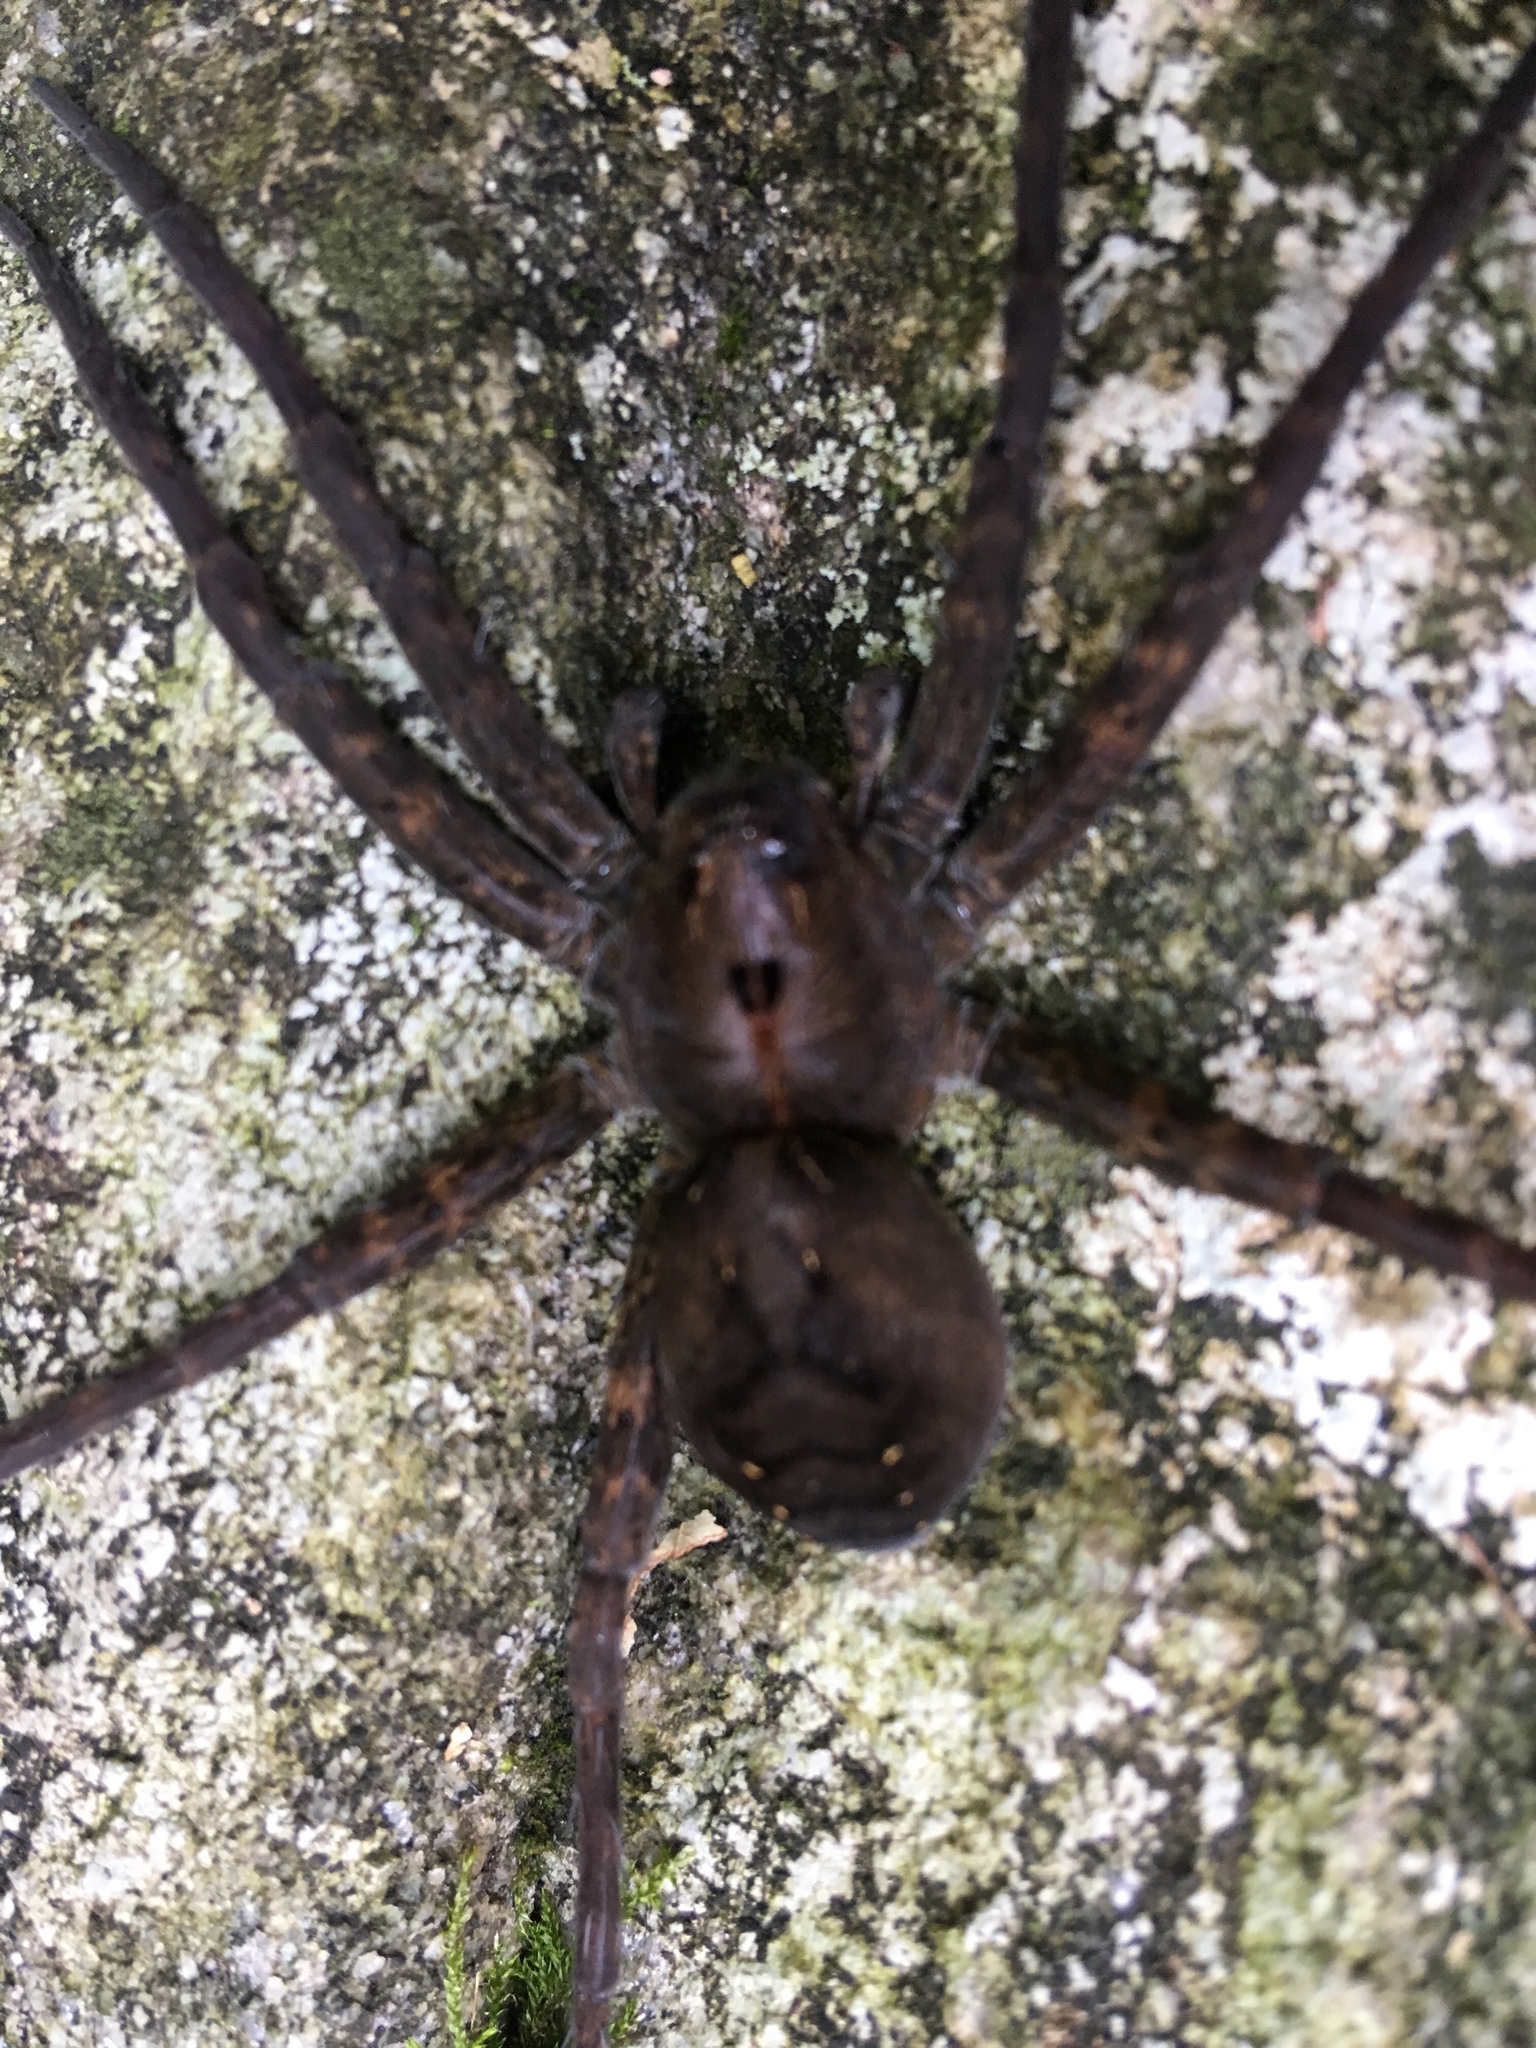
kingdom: Animalia
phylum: Arthropoda
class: Arachnida
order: Araneae
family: Pisauridae
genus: Dolomedes
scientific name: Dolomedes vittatus
